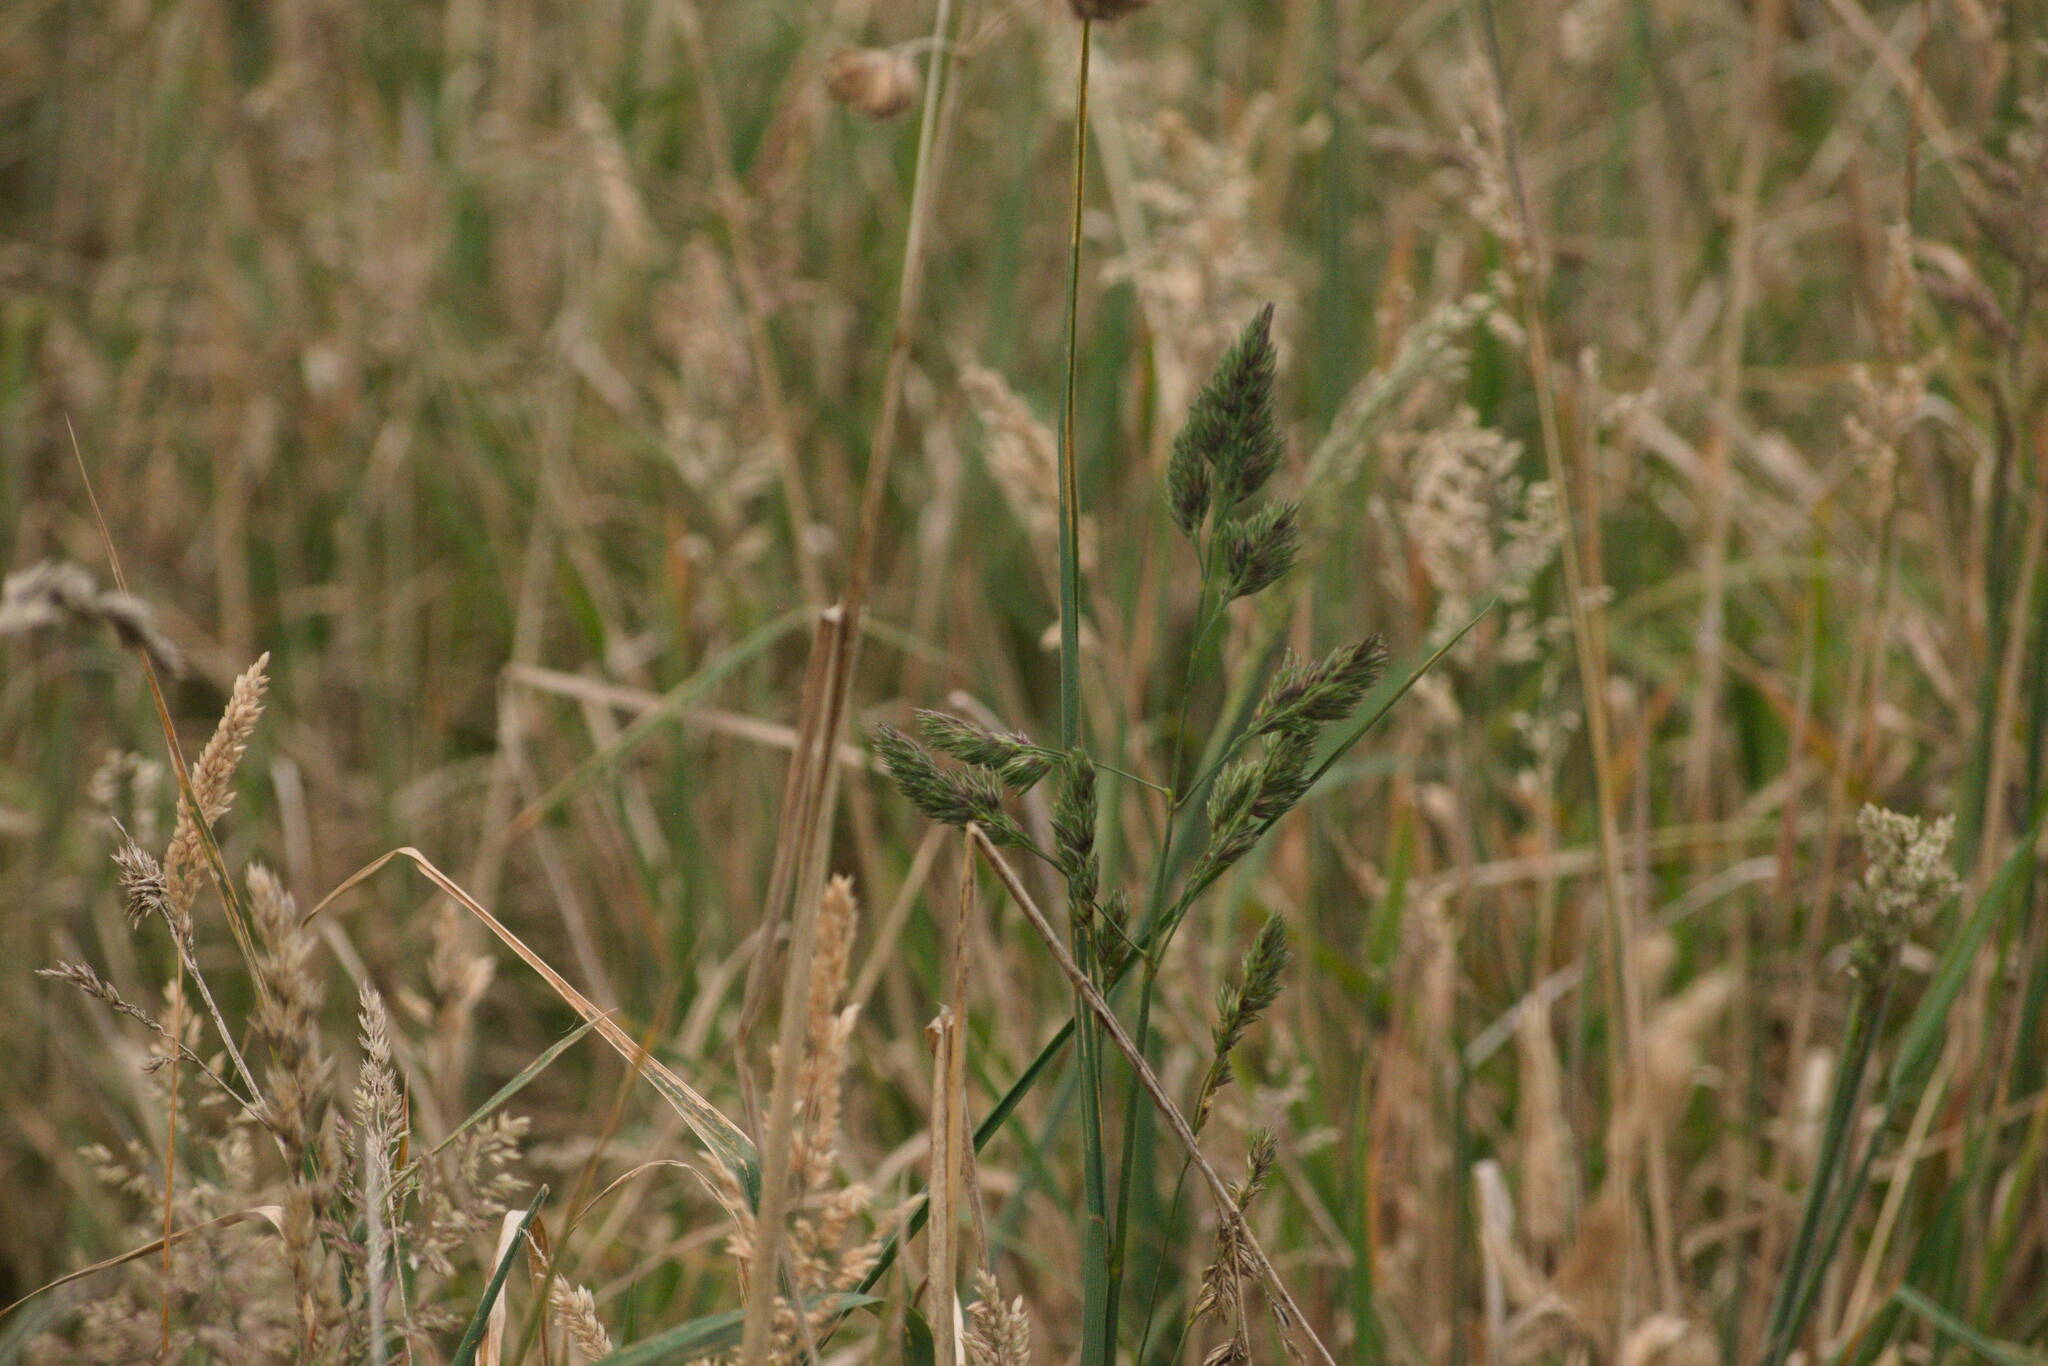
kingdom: Plantae
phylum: Tracheophyta
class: Liliopsida
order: Poales
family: Poaceae
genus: Dactylis
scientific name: Dactylis glomerata
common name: Orchardgrass
